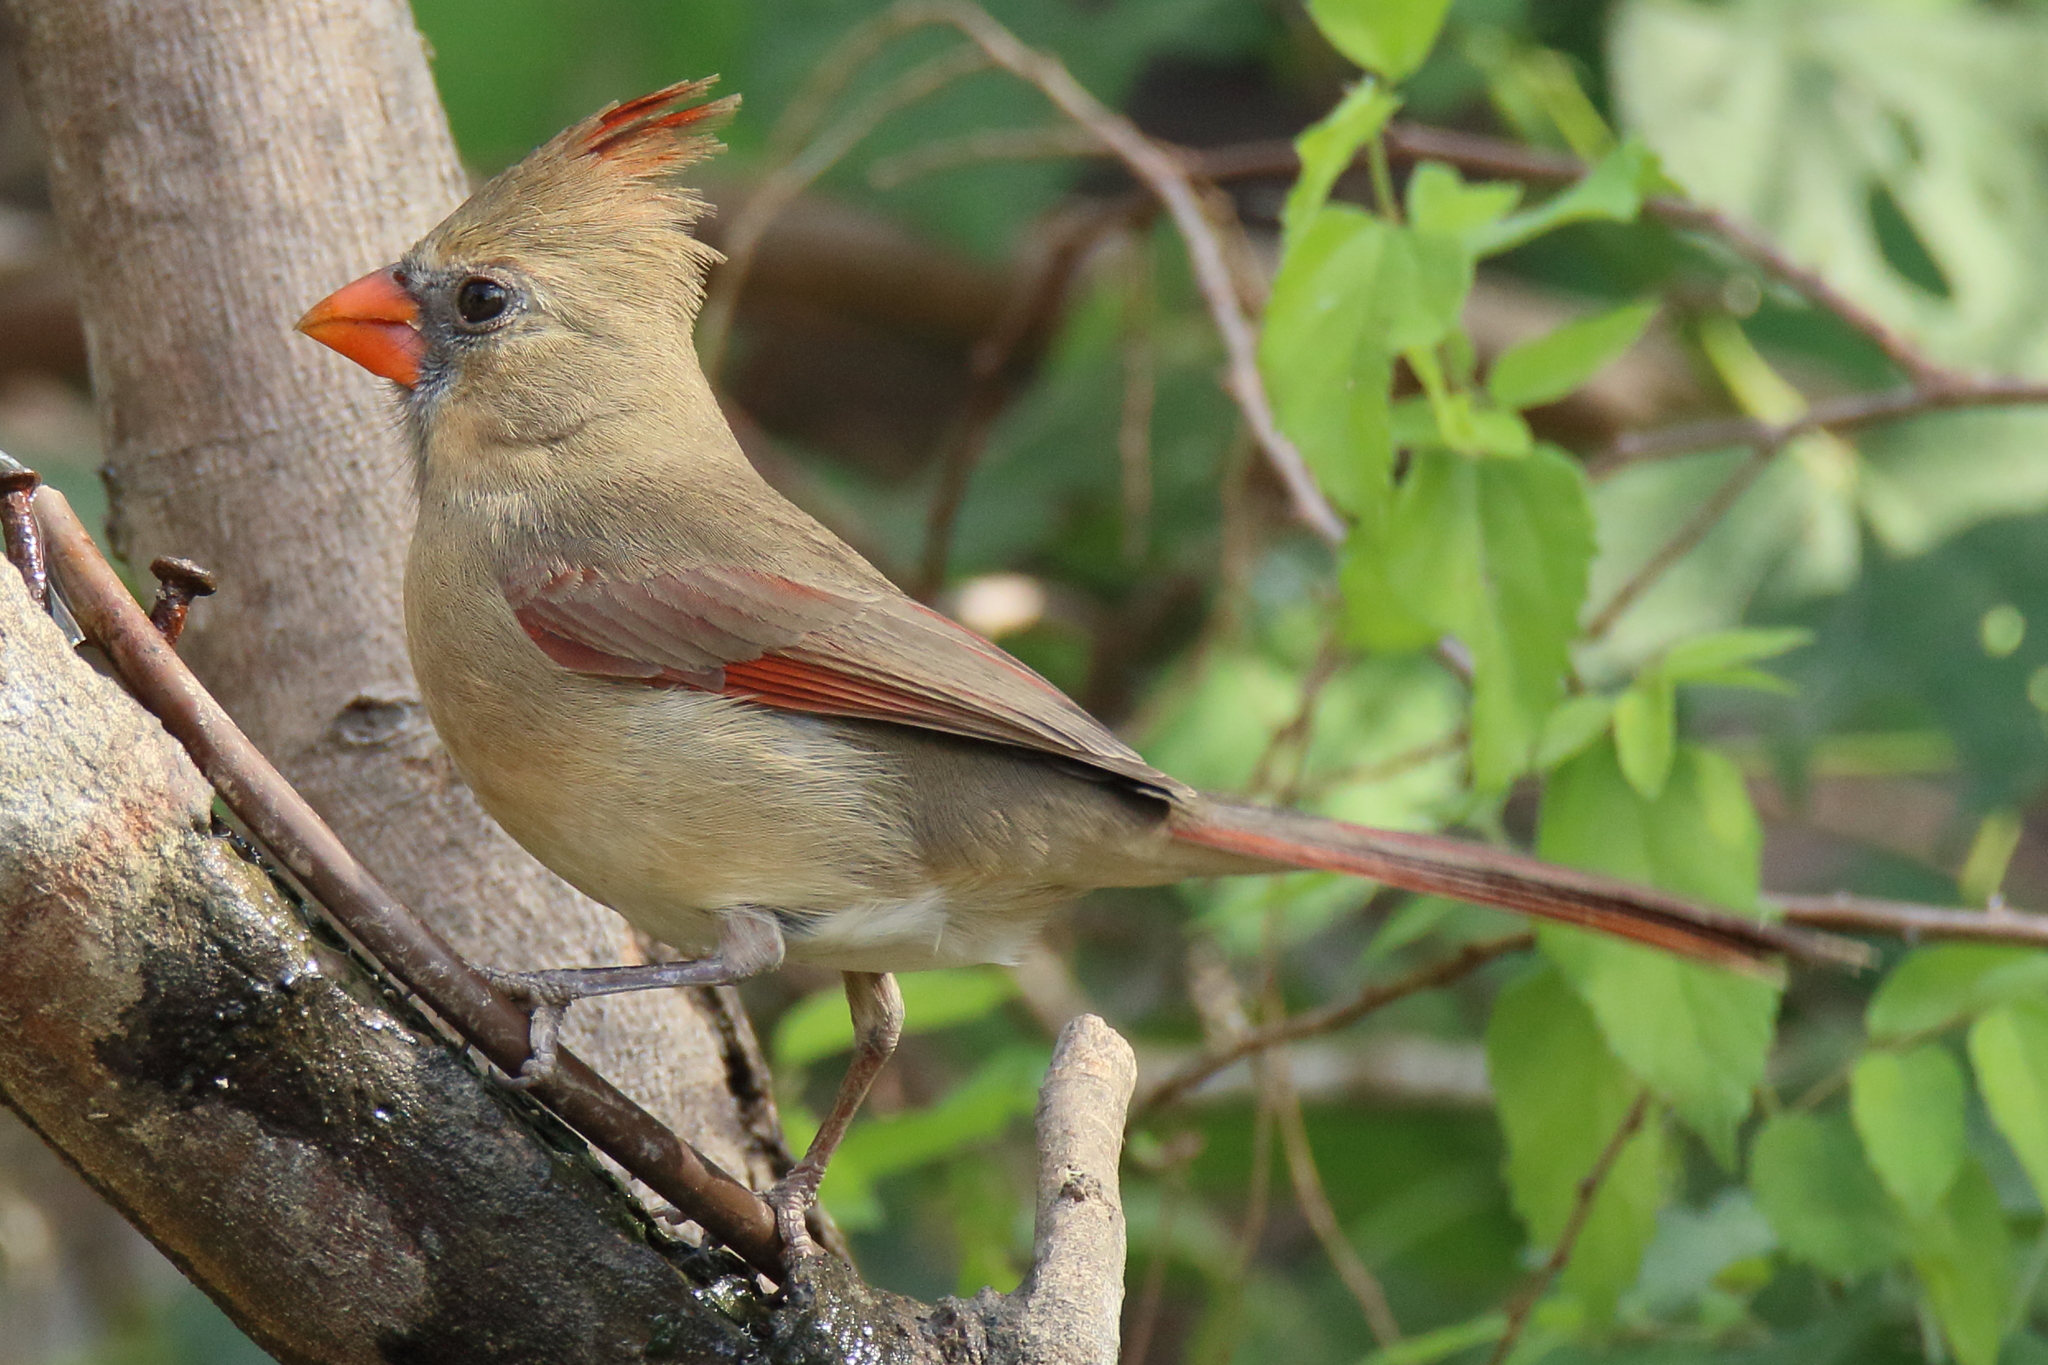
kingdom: Animalia
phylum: Chordata
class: Aves
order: Passeriformes
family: Cardinalidae
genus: Cardinalis
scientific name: Cardinalis cardinalis
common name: Northern cardinal
